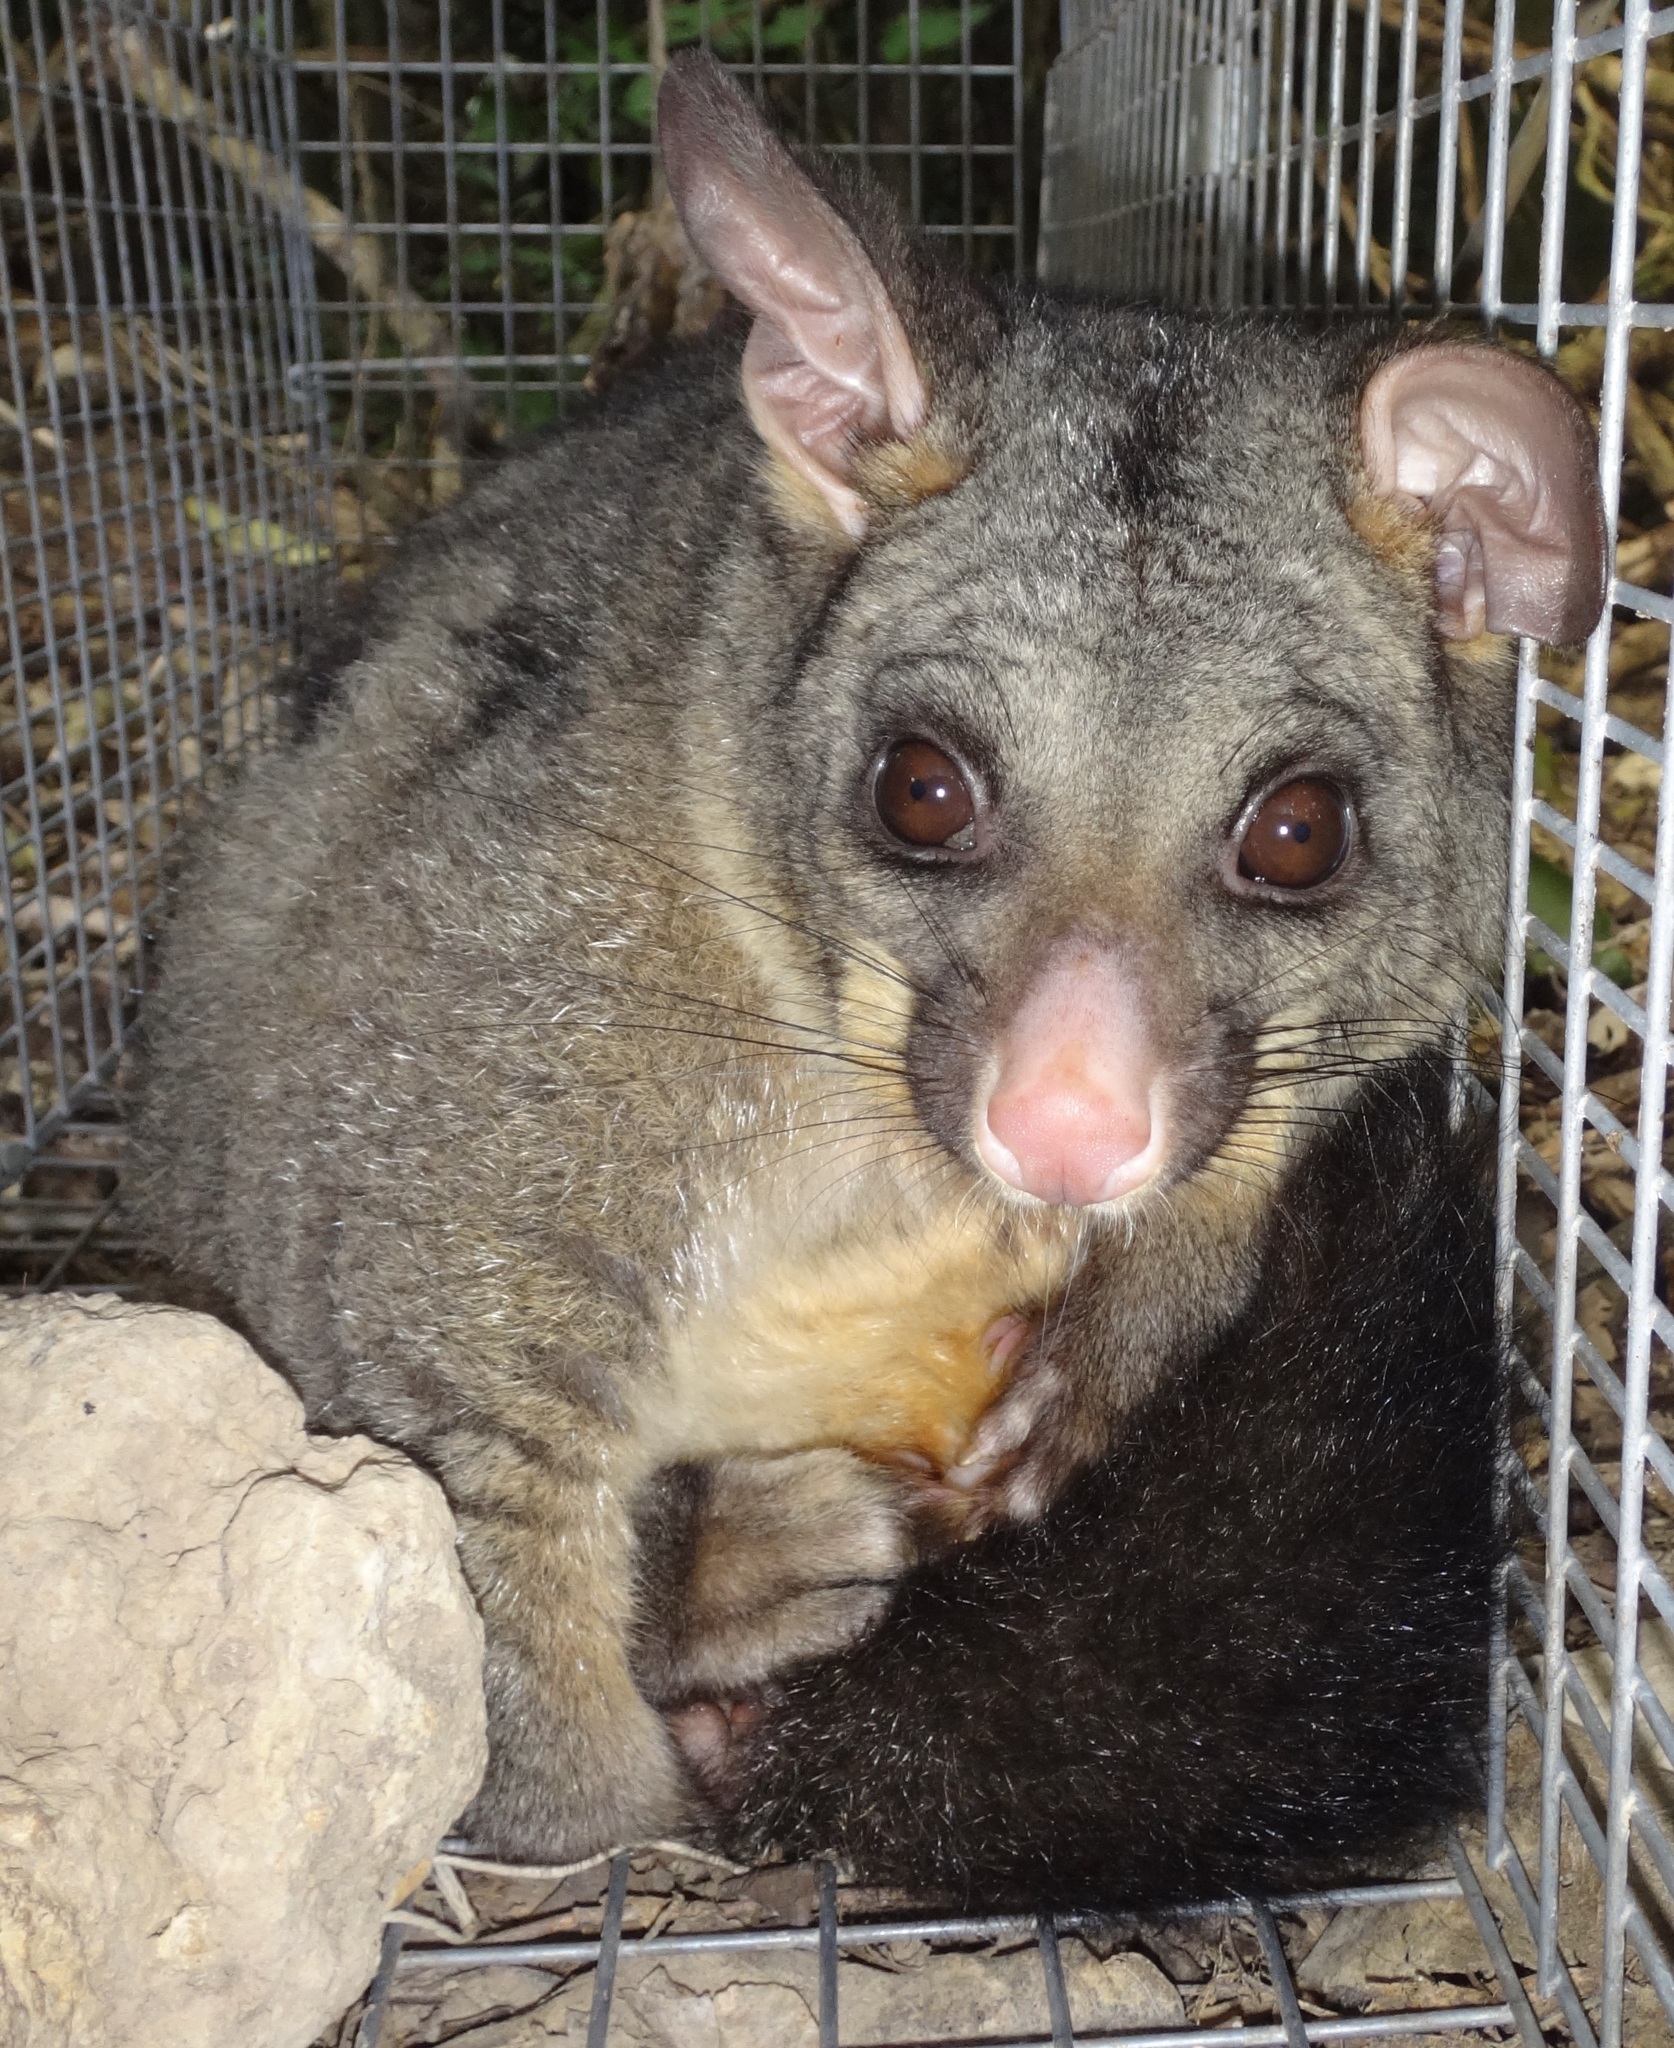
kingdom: Animalia
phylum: Chordata
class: Mammalia
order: Diprotodontia
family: Phalangeridae
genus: Trichosurus
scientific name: Trichosurus vulpecula
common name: Common brushtail
